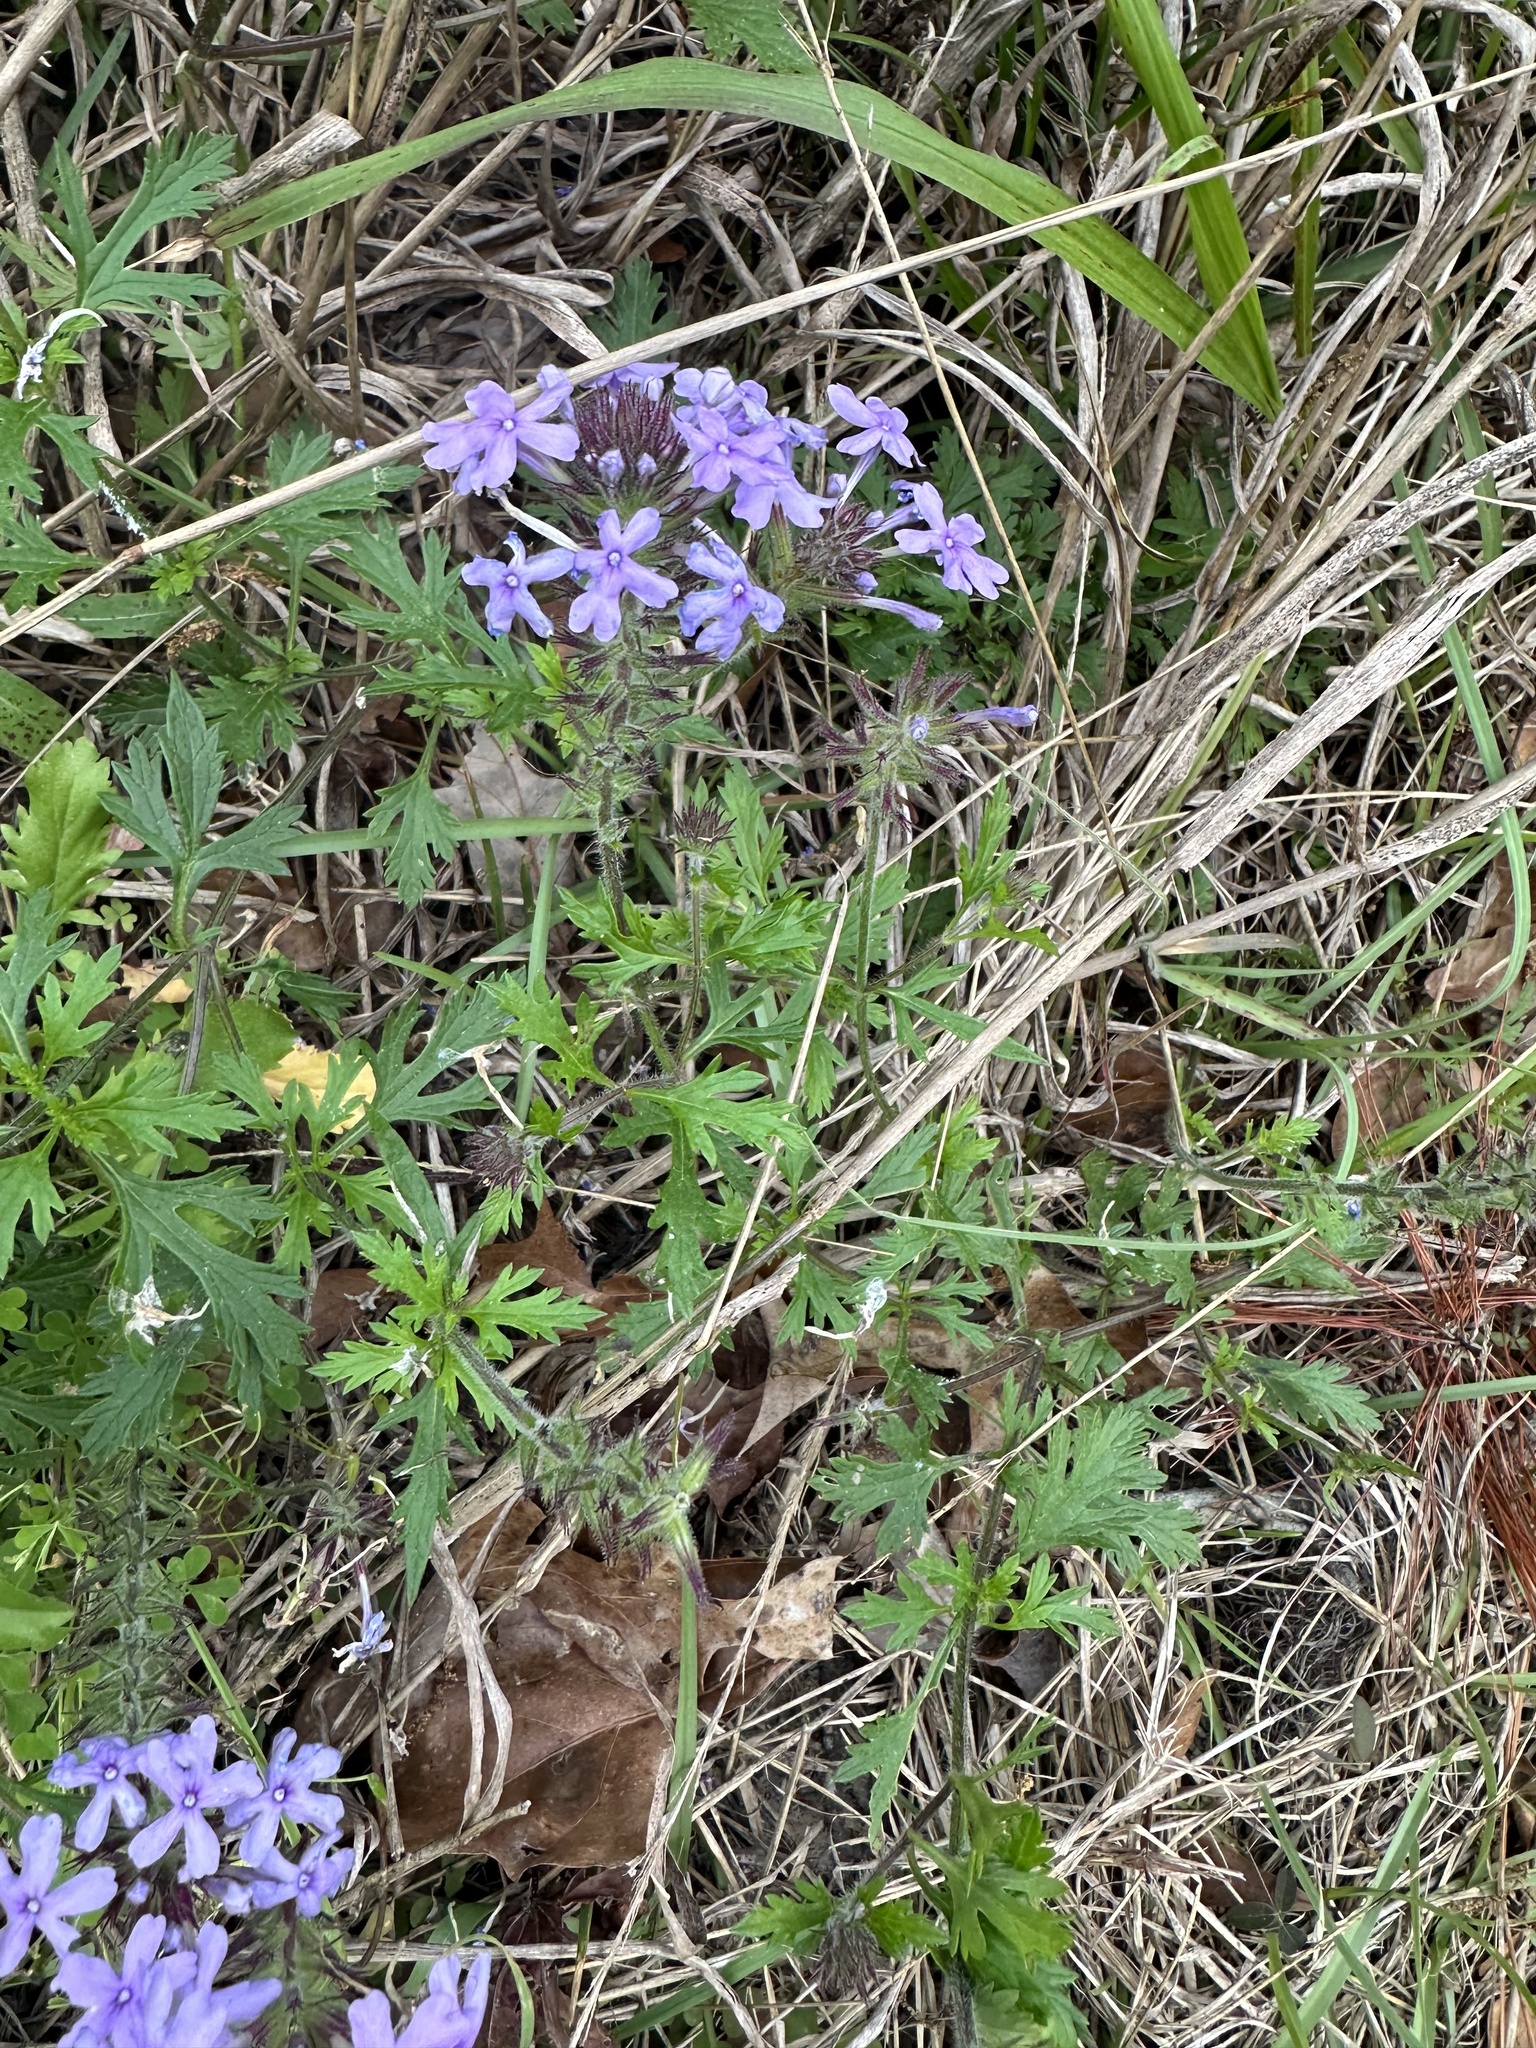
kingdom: Plantae
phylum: Tracheophyta
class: Magnoliopsida
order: Lamiales
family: Verbenaceae
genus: Verbena
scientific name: Verbena canadensis
